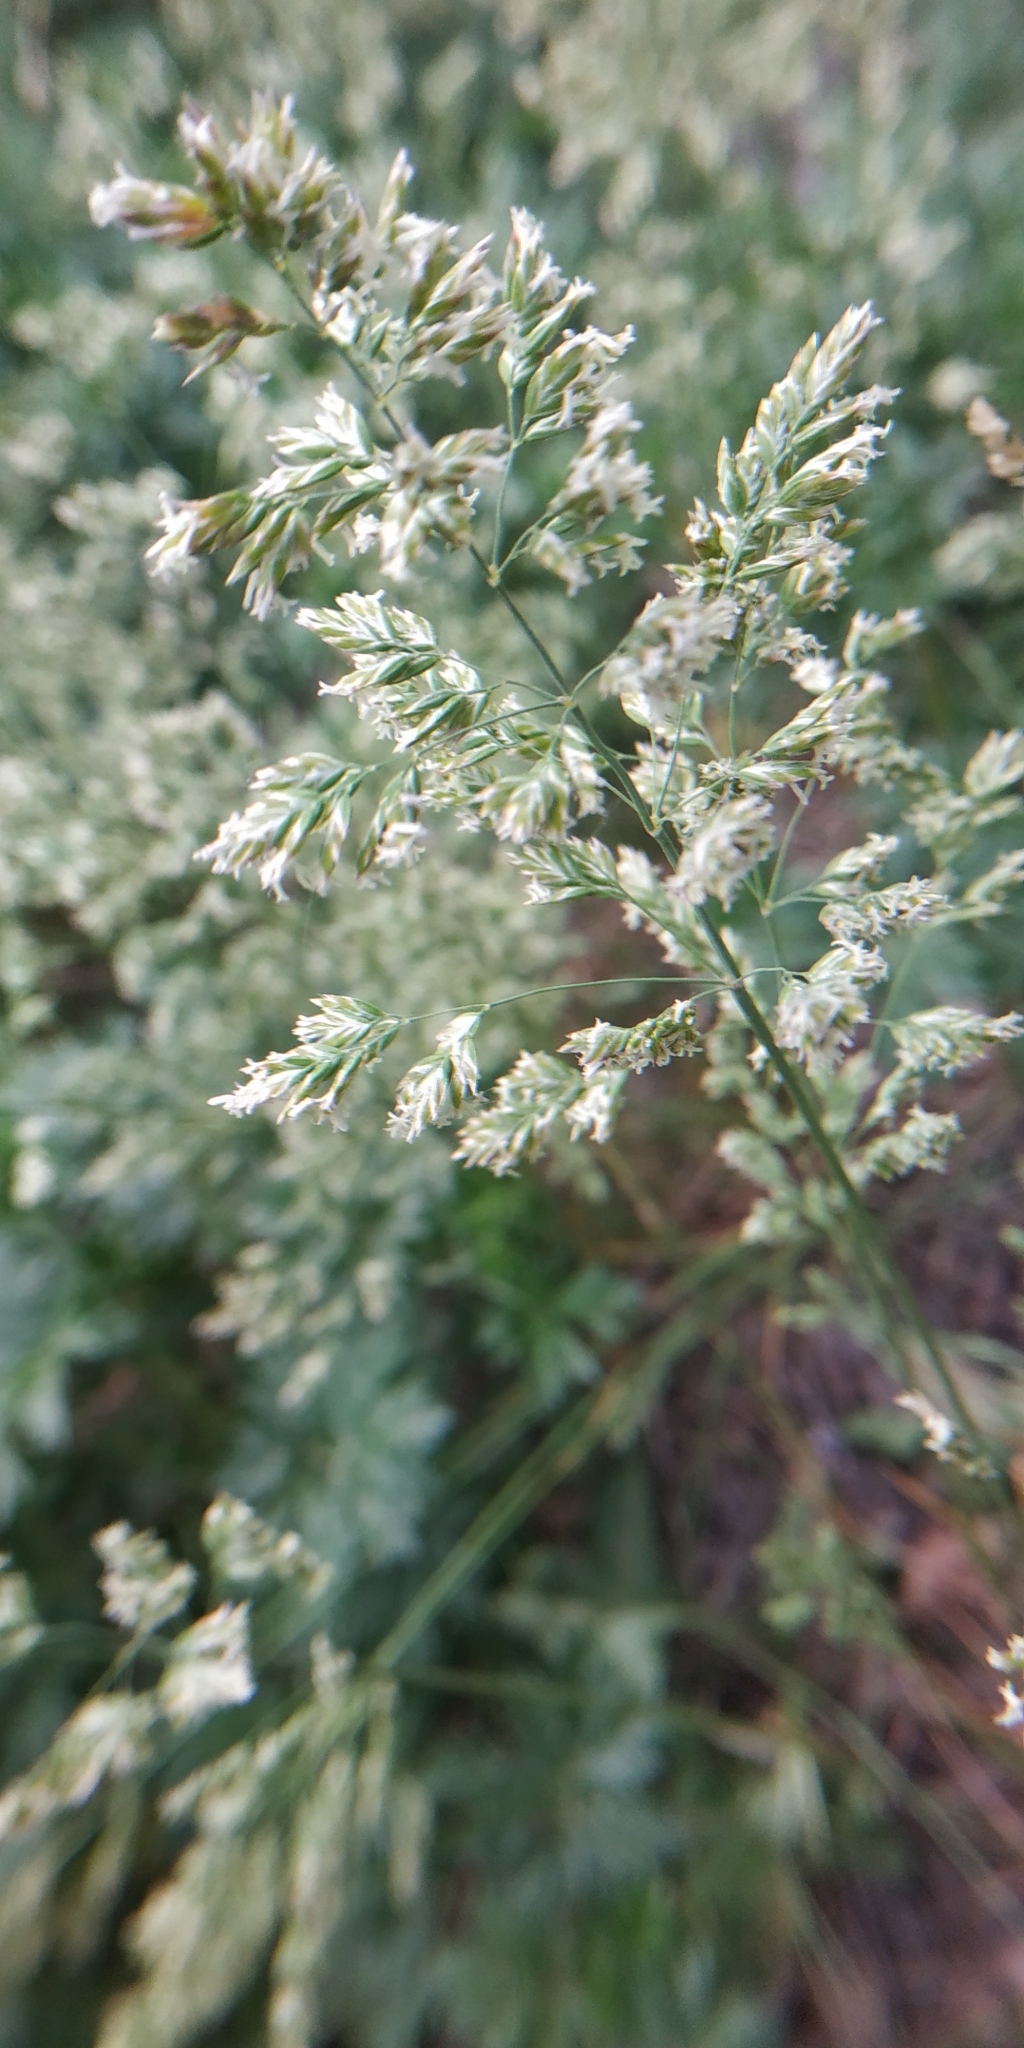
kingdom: Plantae
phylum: Tracheophyta
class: Liliopsida
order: Poales
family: Poaceae
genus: Poa
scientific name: Poa pratensis
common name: Kentucky bluegrass
